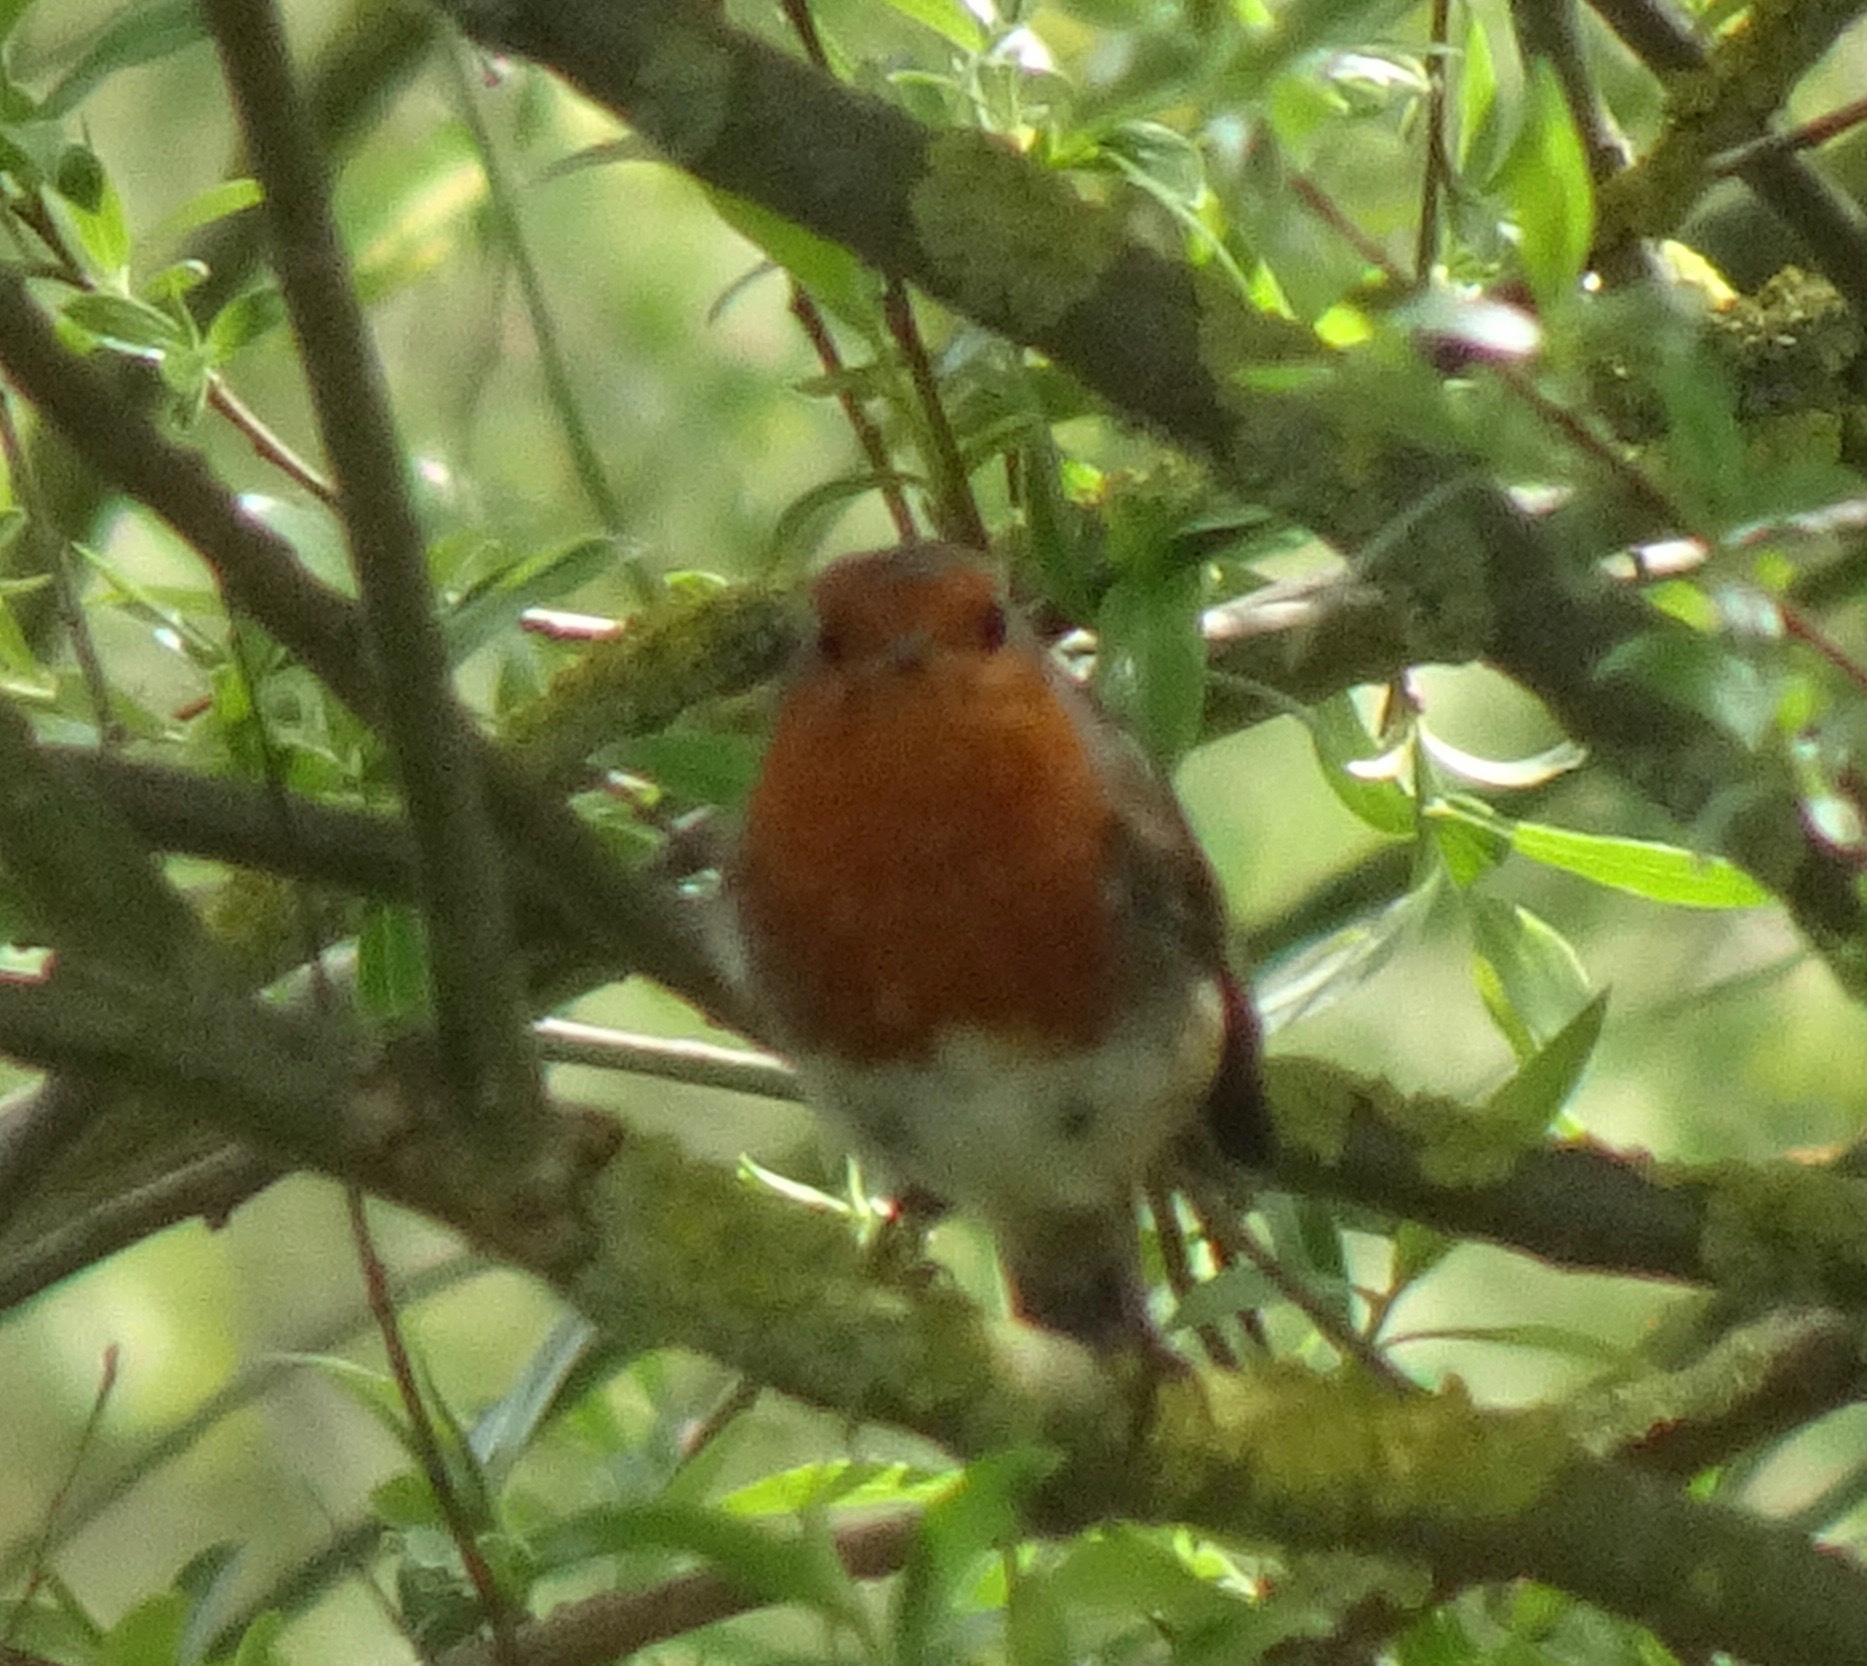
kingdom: Animalia
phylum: Chordata
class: Aves
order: Passeriformes
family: Muscicapidae
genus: Erithacus
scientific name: Erithacus rubecula
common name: European robin
